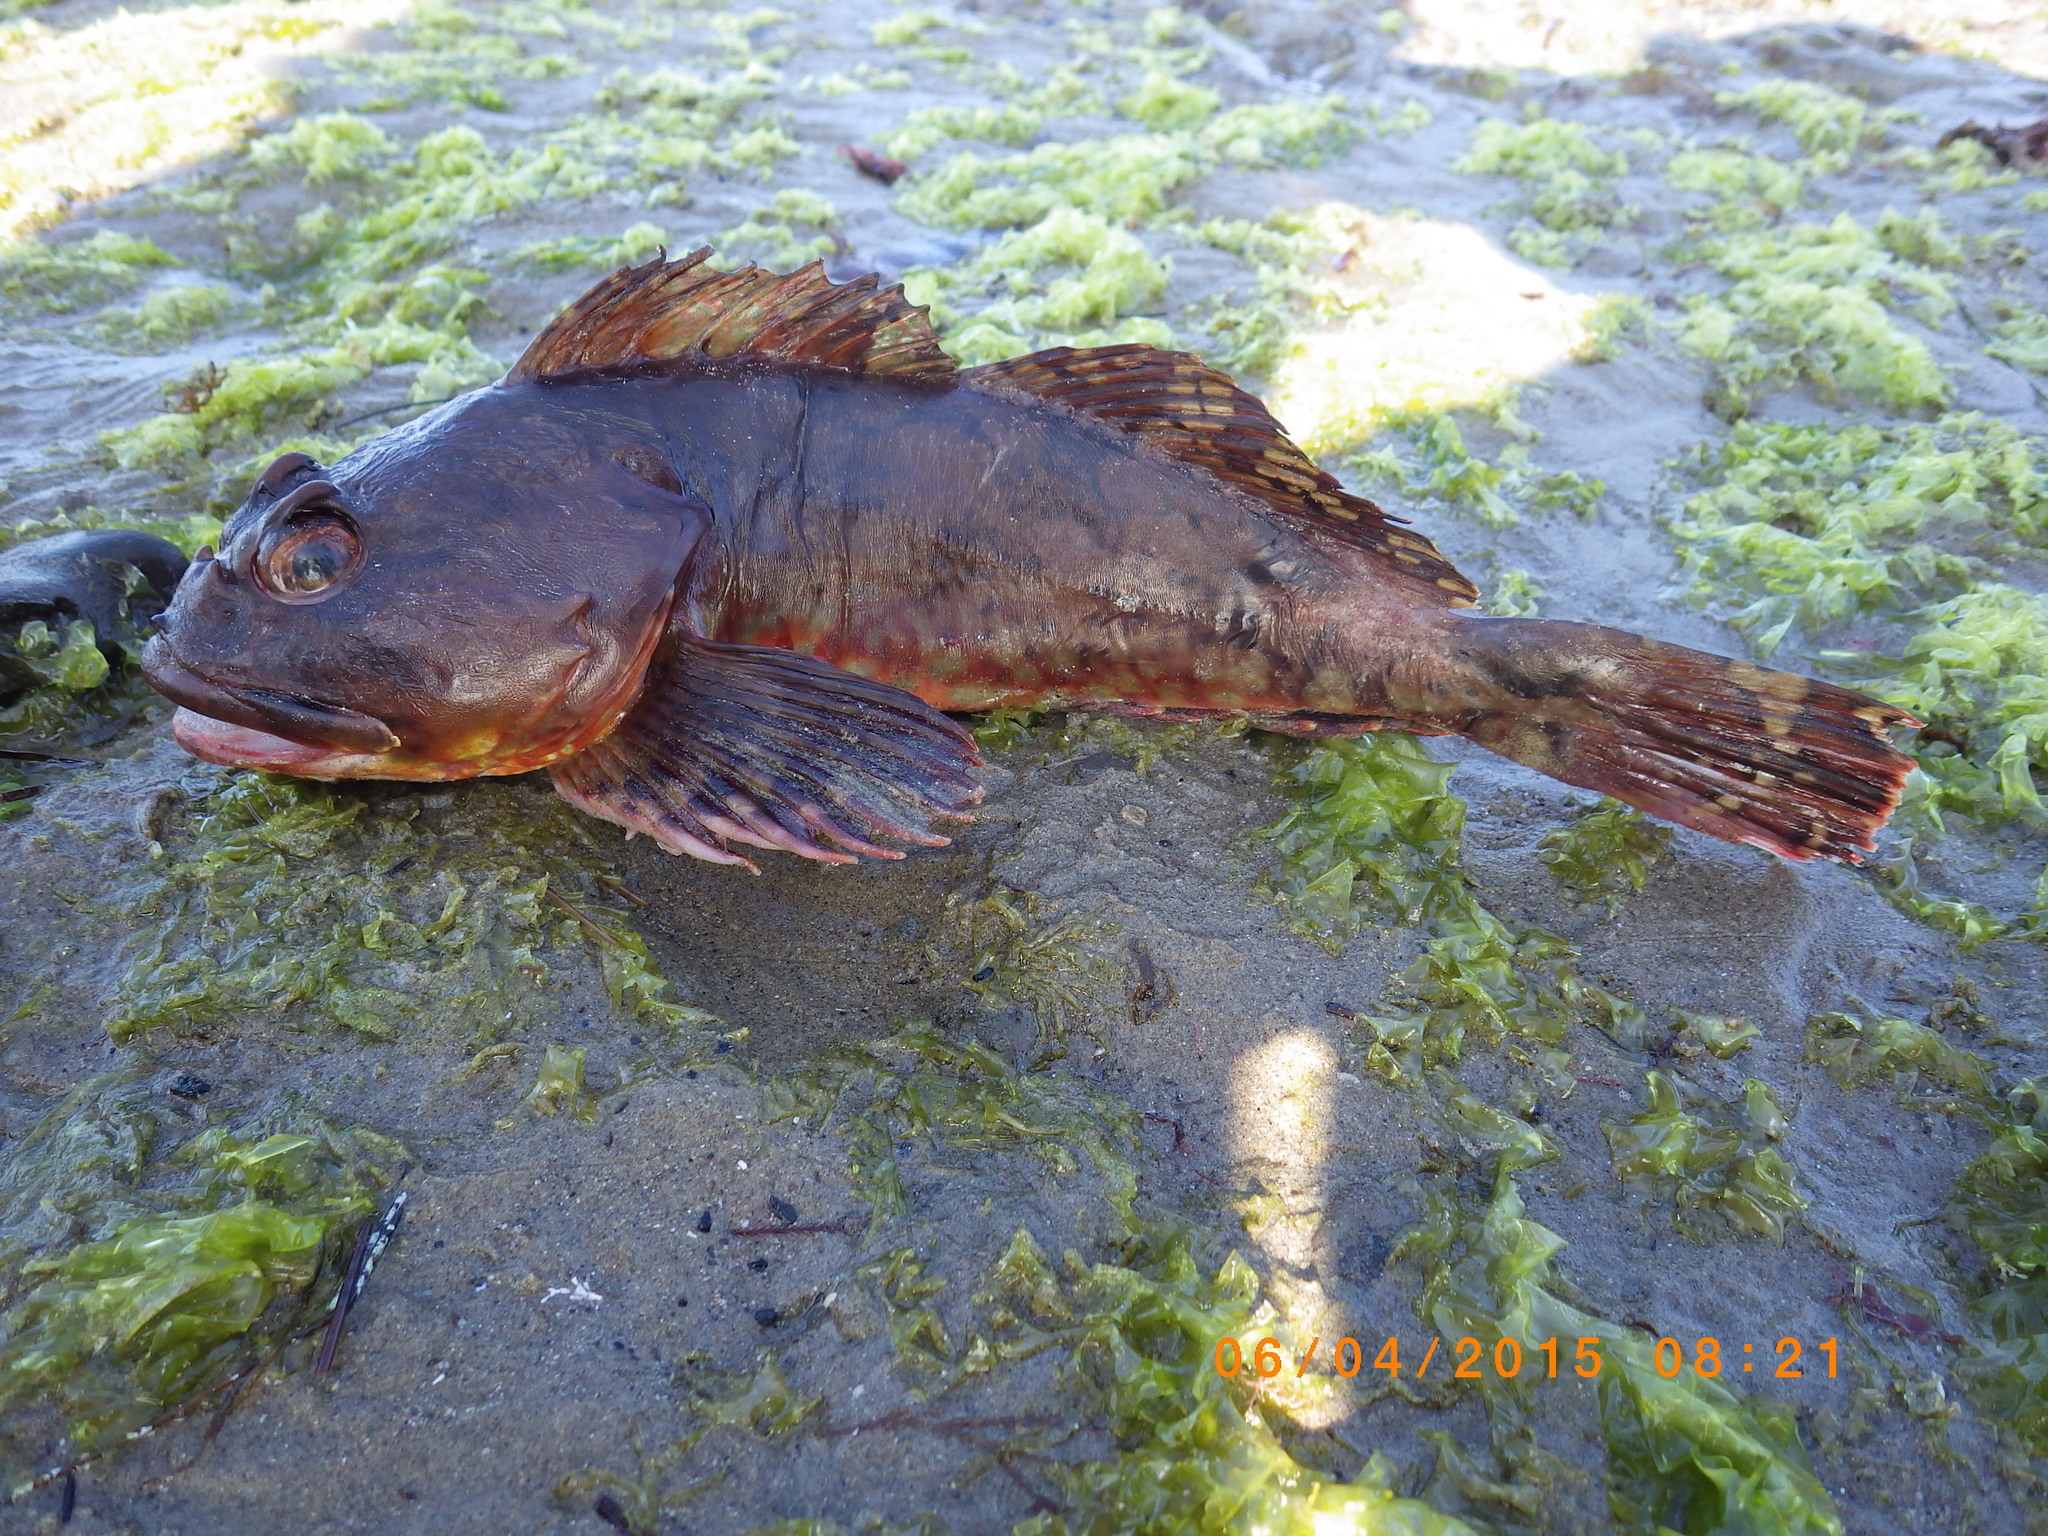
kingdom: Animalia
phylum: Chordata
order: Scorpaeniformes
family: Cottidae
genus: Scorpaenichthys
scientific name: Scorpaenichthys marmoratus
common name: Cabezon
